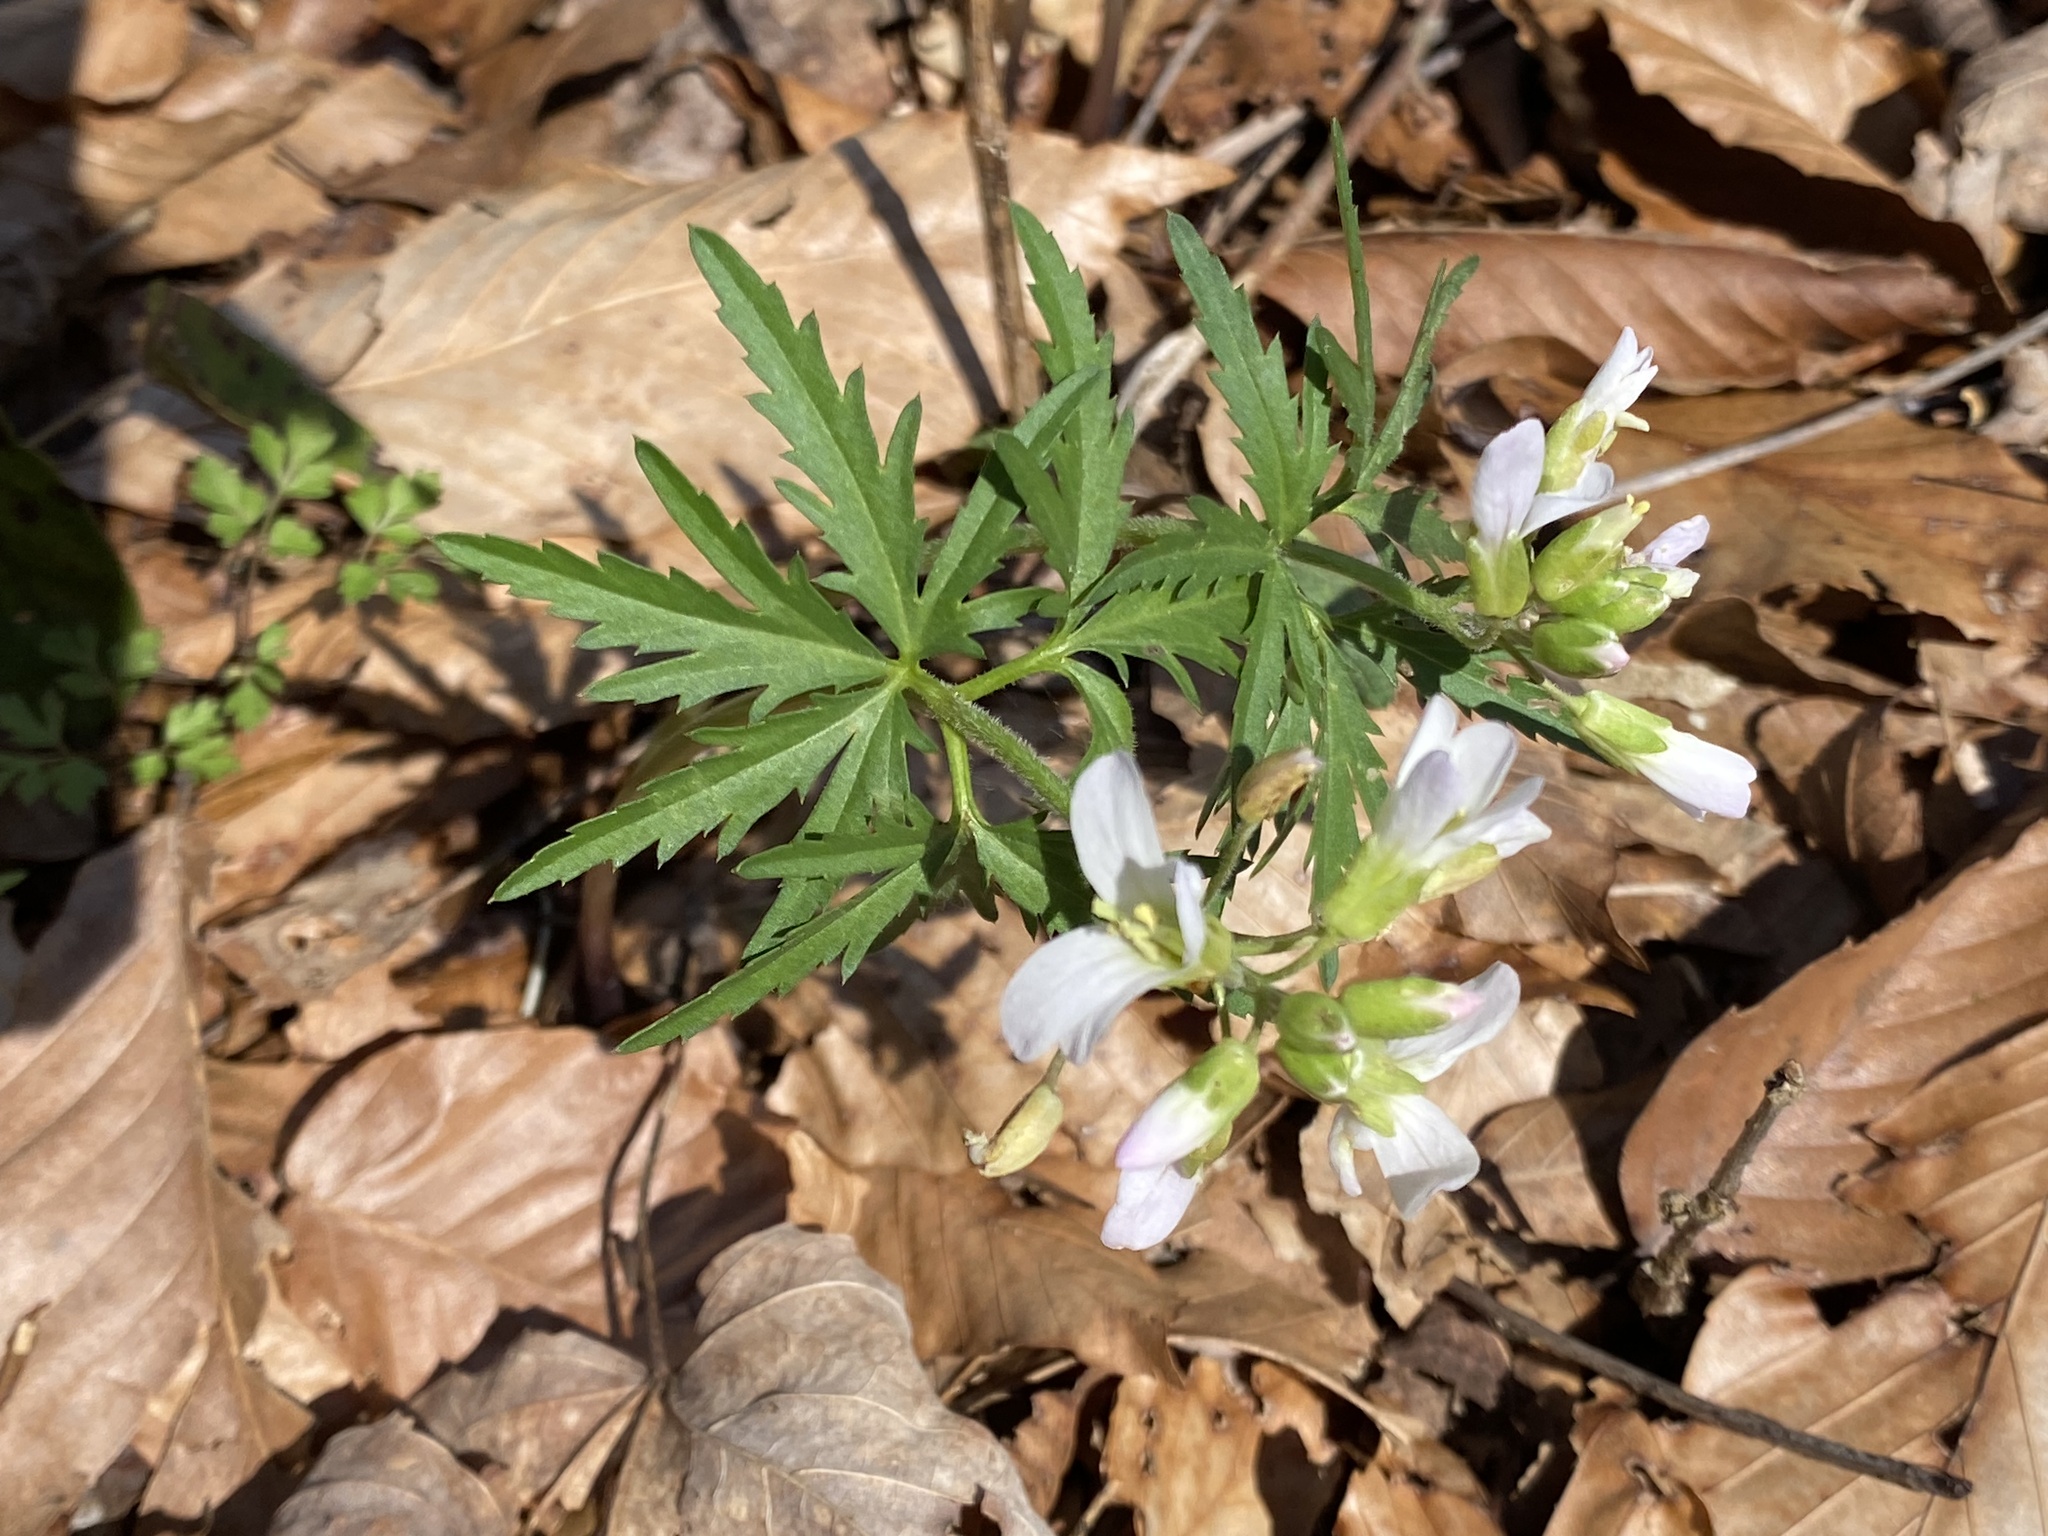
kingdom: Plantae
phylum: Tracheophyta
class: Magnoliopsida
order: Brassicales
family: Brassicaceae
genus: Cardamine
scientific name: Cardamine concatenata
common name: Cut-leaf toothcup
